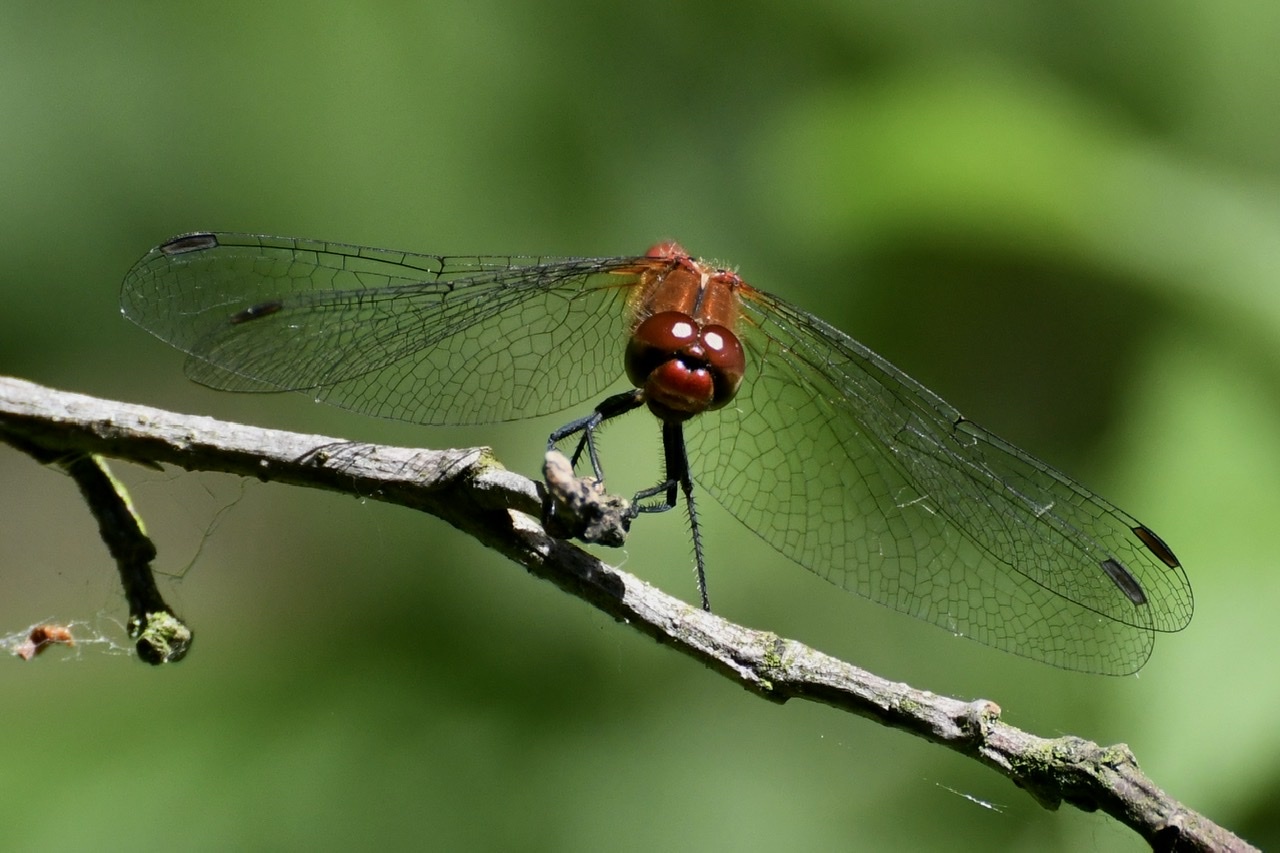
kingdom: Animalia
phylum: Arthropoda
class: Insecta
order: Odonata
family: Libellulidae
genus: Sympetrum
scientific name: Sympetrum sanguineum
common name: Ruddy darter
